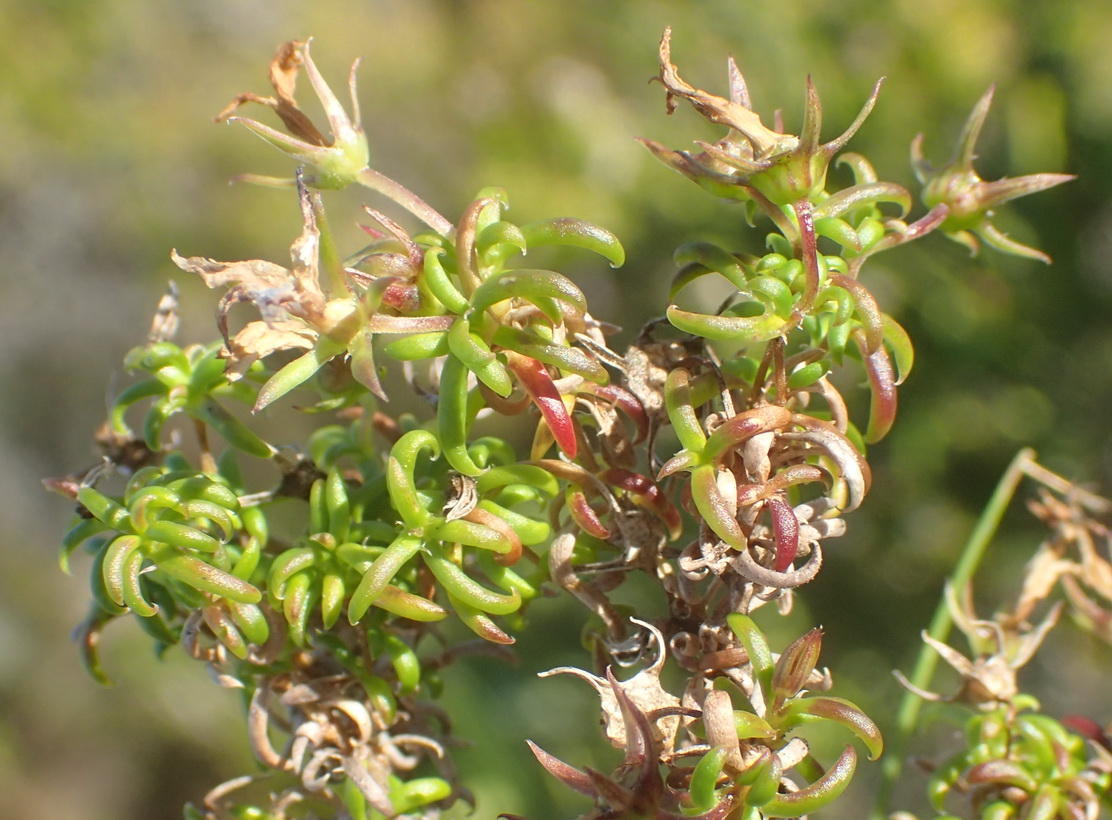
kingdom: Plantae
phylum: Tracheophyta
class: Magnoliopsida
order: Asterales
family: Campanulaceae
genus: Wahlenbergia
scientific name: Wahlenbergia thunbergii
